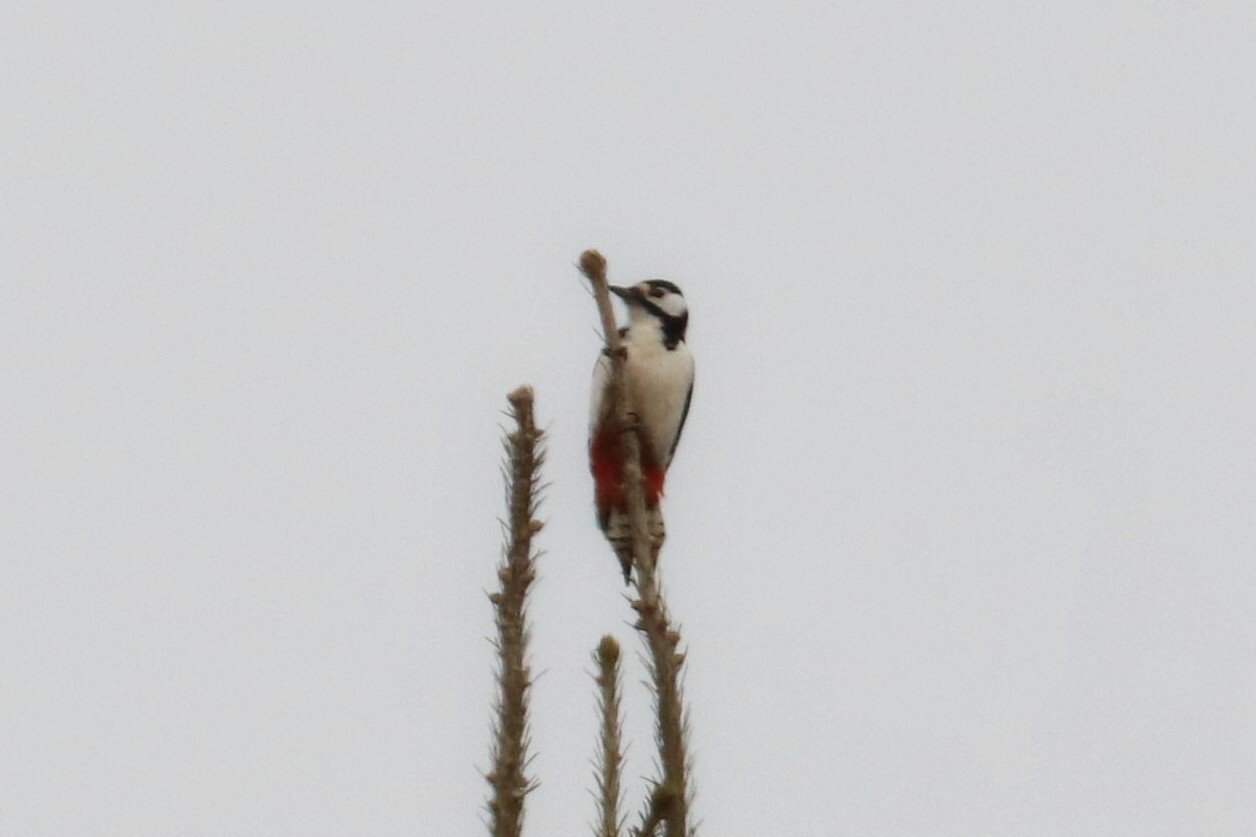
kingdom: Animalia
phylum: Chordata
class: Aves
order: Piciformes
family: Picidae
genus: Dendrocopos
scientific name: Dendrocopos major
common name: Great spotted woodpecker
